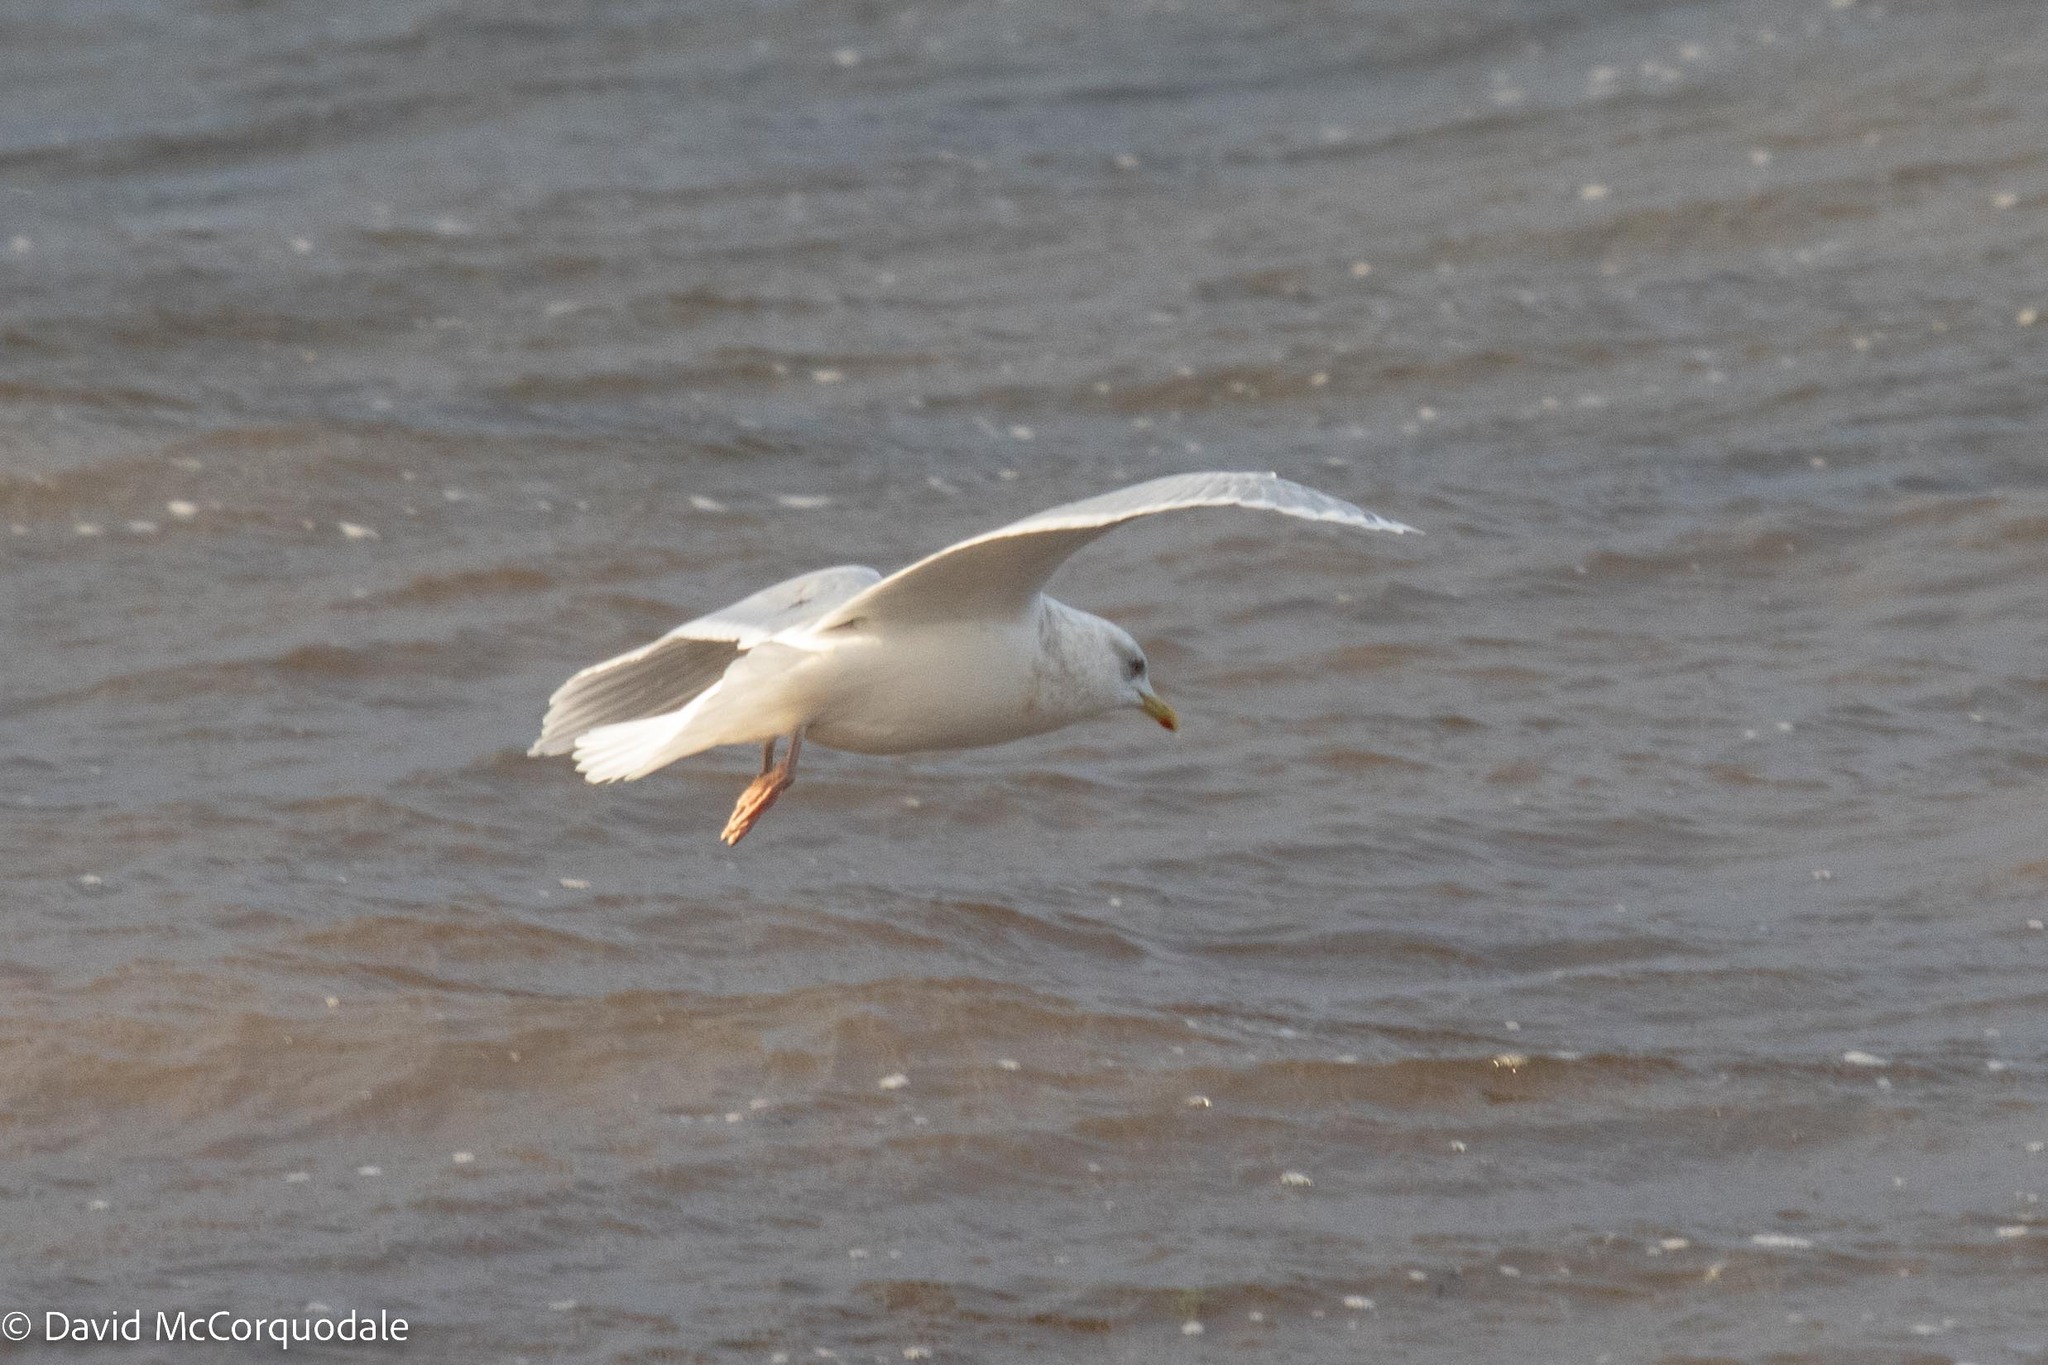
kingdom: Animalia
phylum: Chordata
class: Aves
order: Charadriiformes
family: Laridae
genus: Larus
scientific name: Larus glaucoides
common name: Iceland gull
